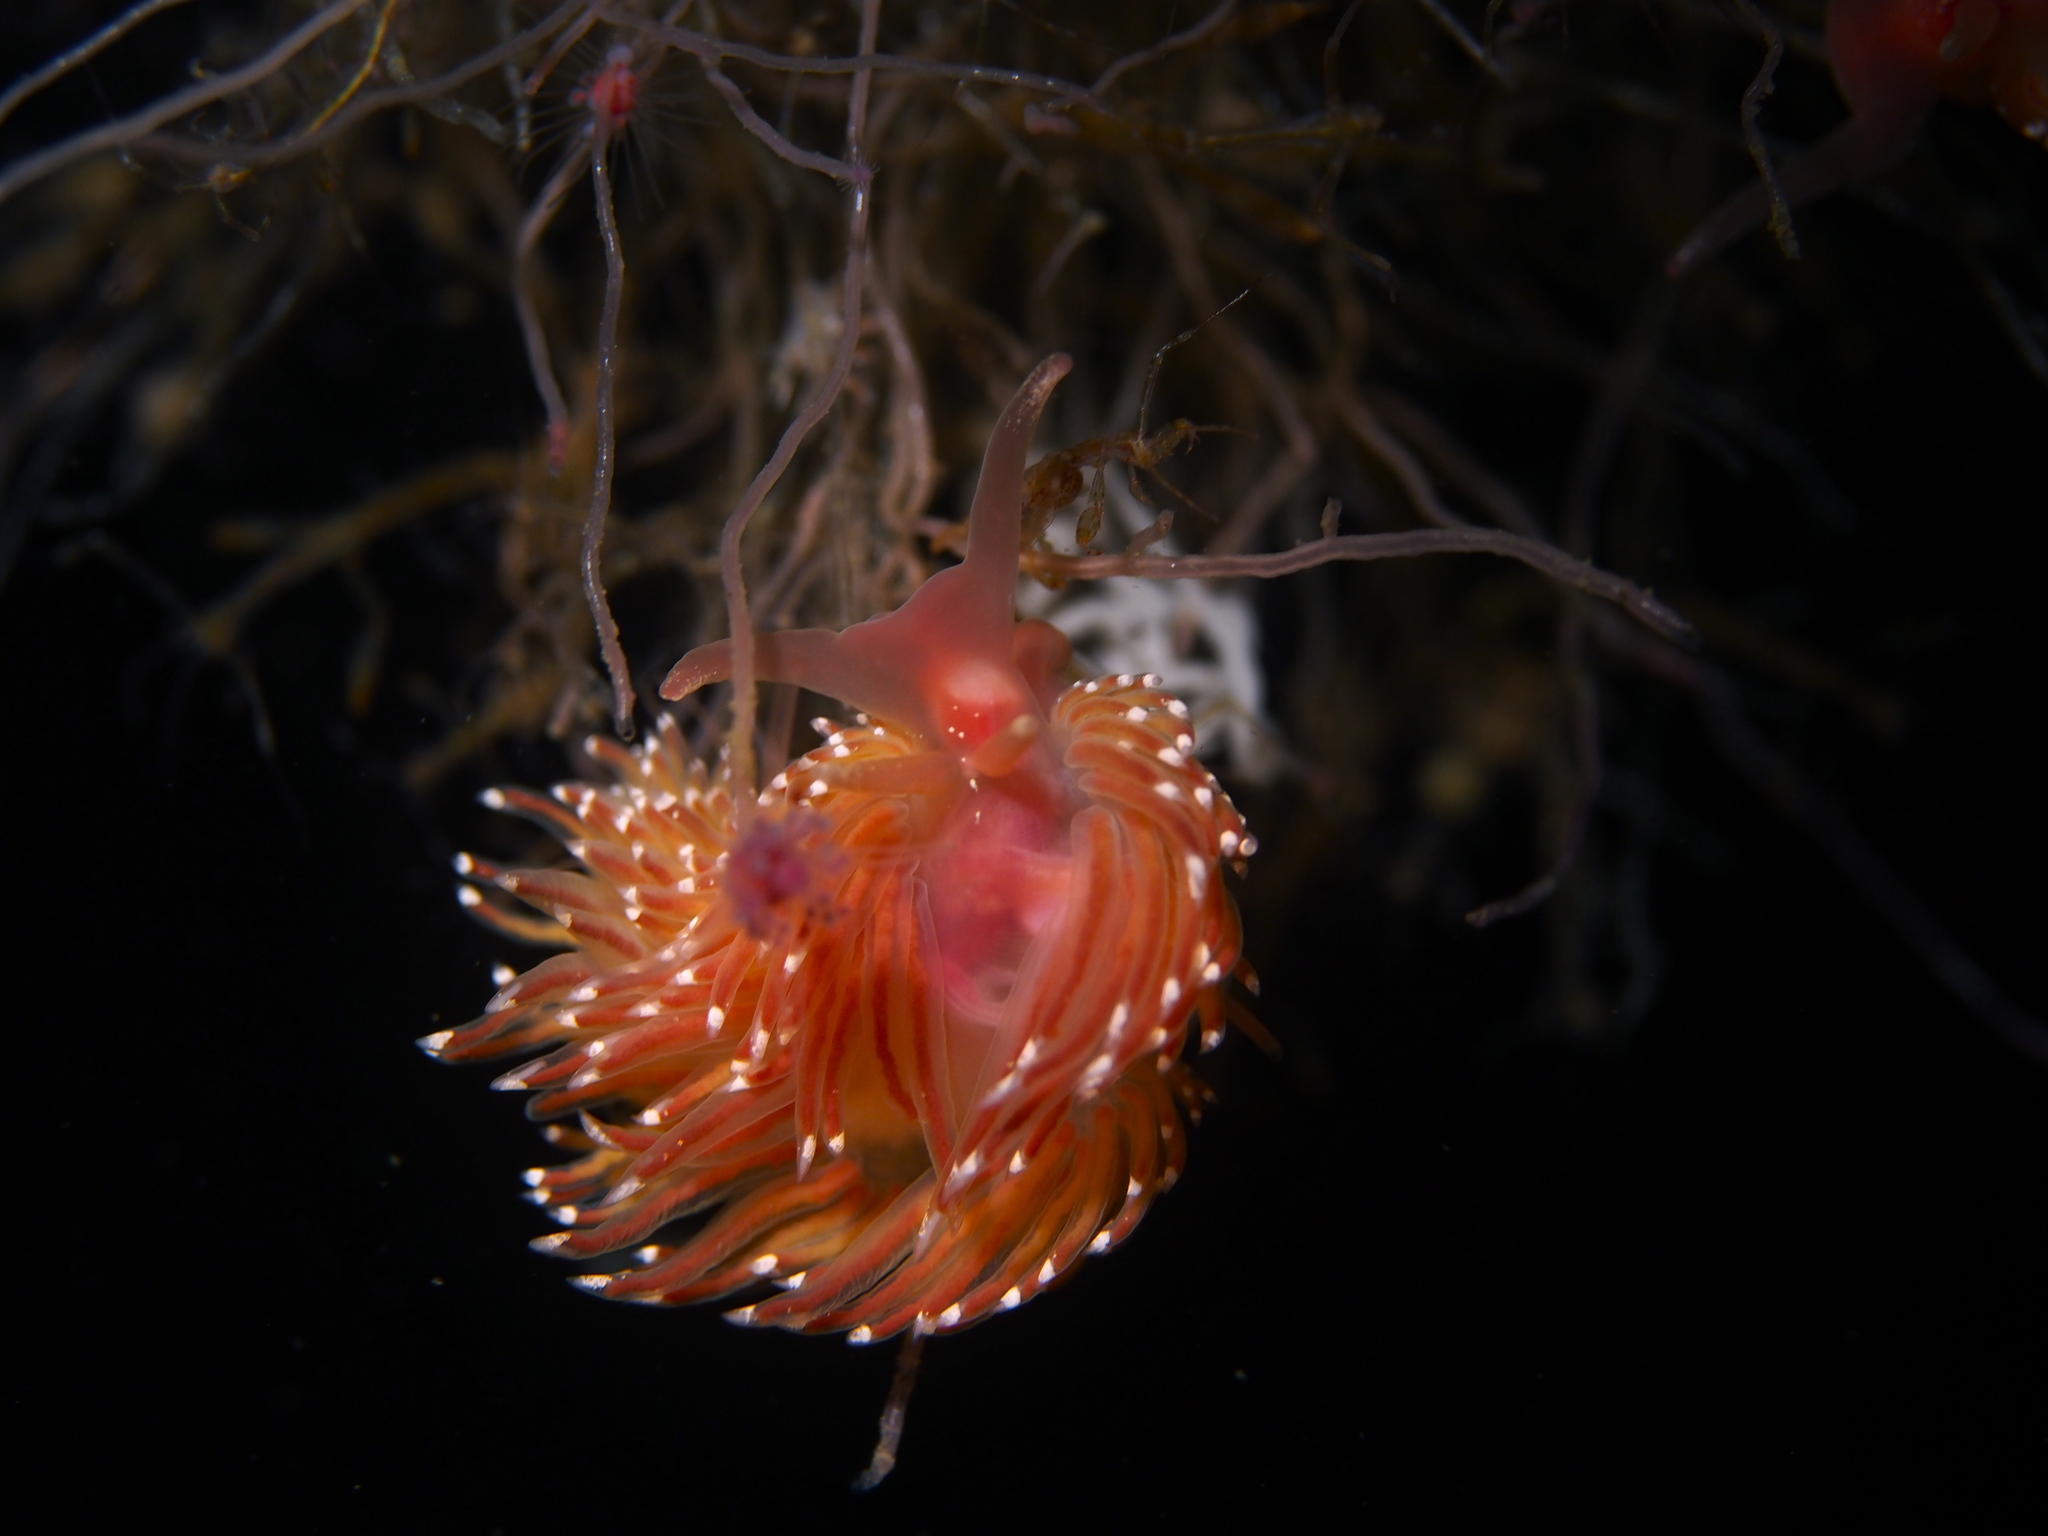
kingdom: Animalia
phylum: Mollusca
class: Gastropoda
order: Nudibranchia
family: Facelinidae
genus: Facelina
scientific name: Facelina bostoniensis
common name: Boston facelina
